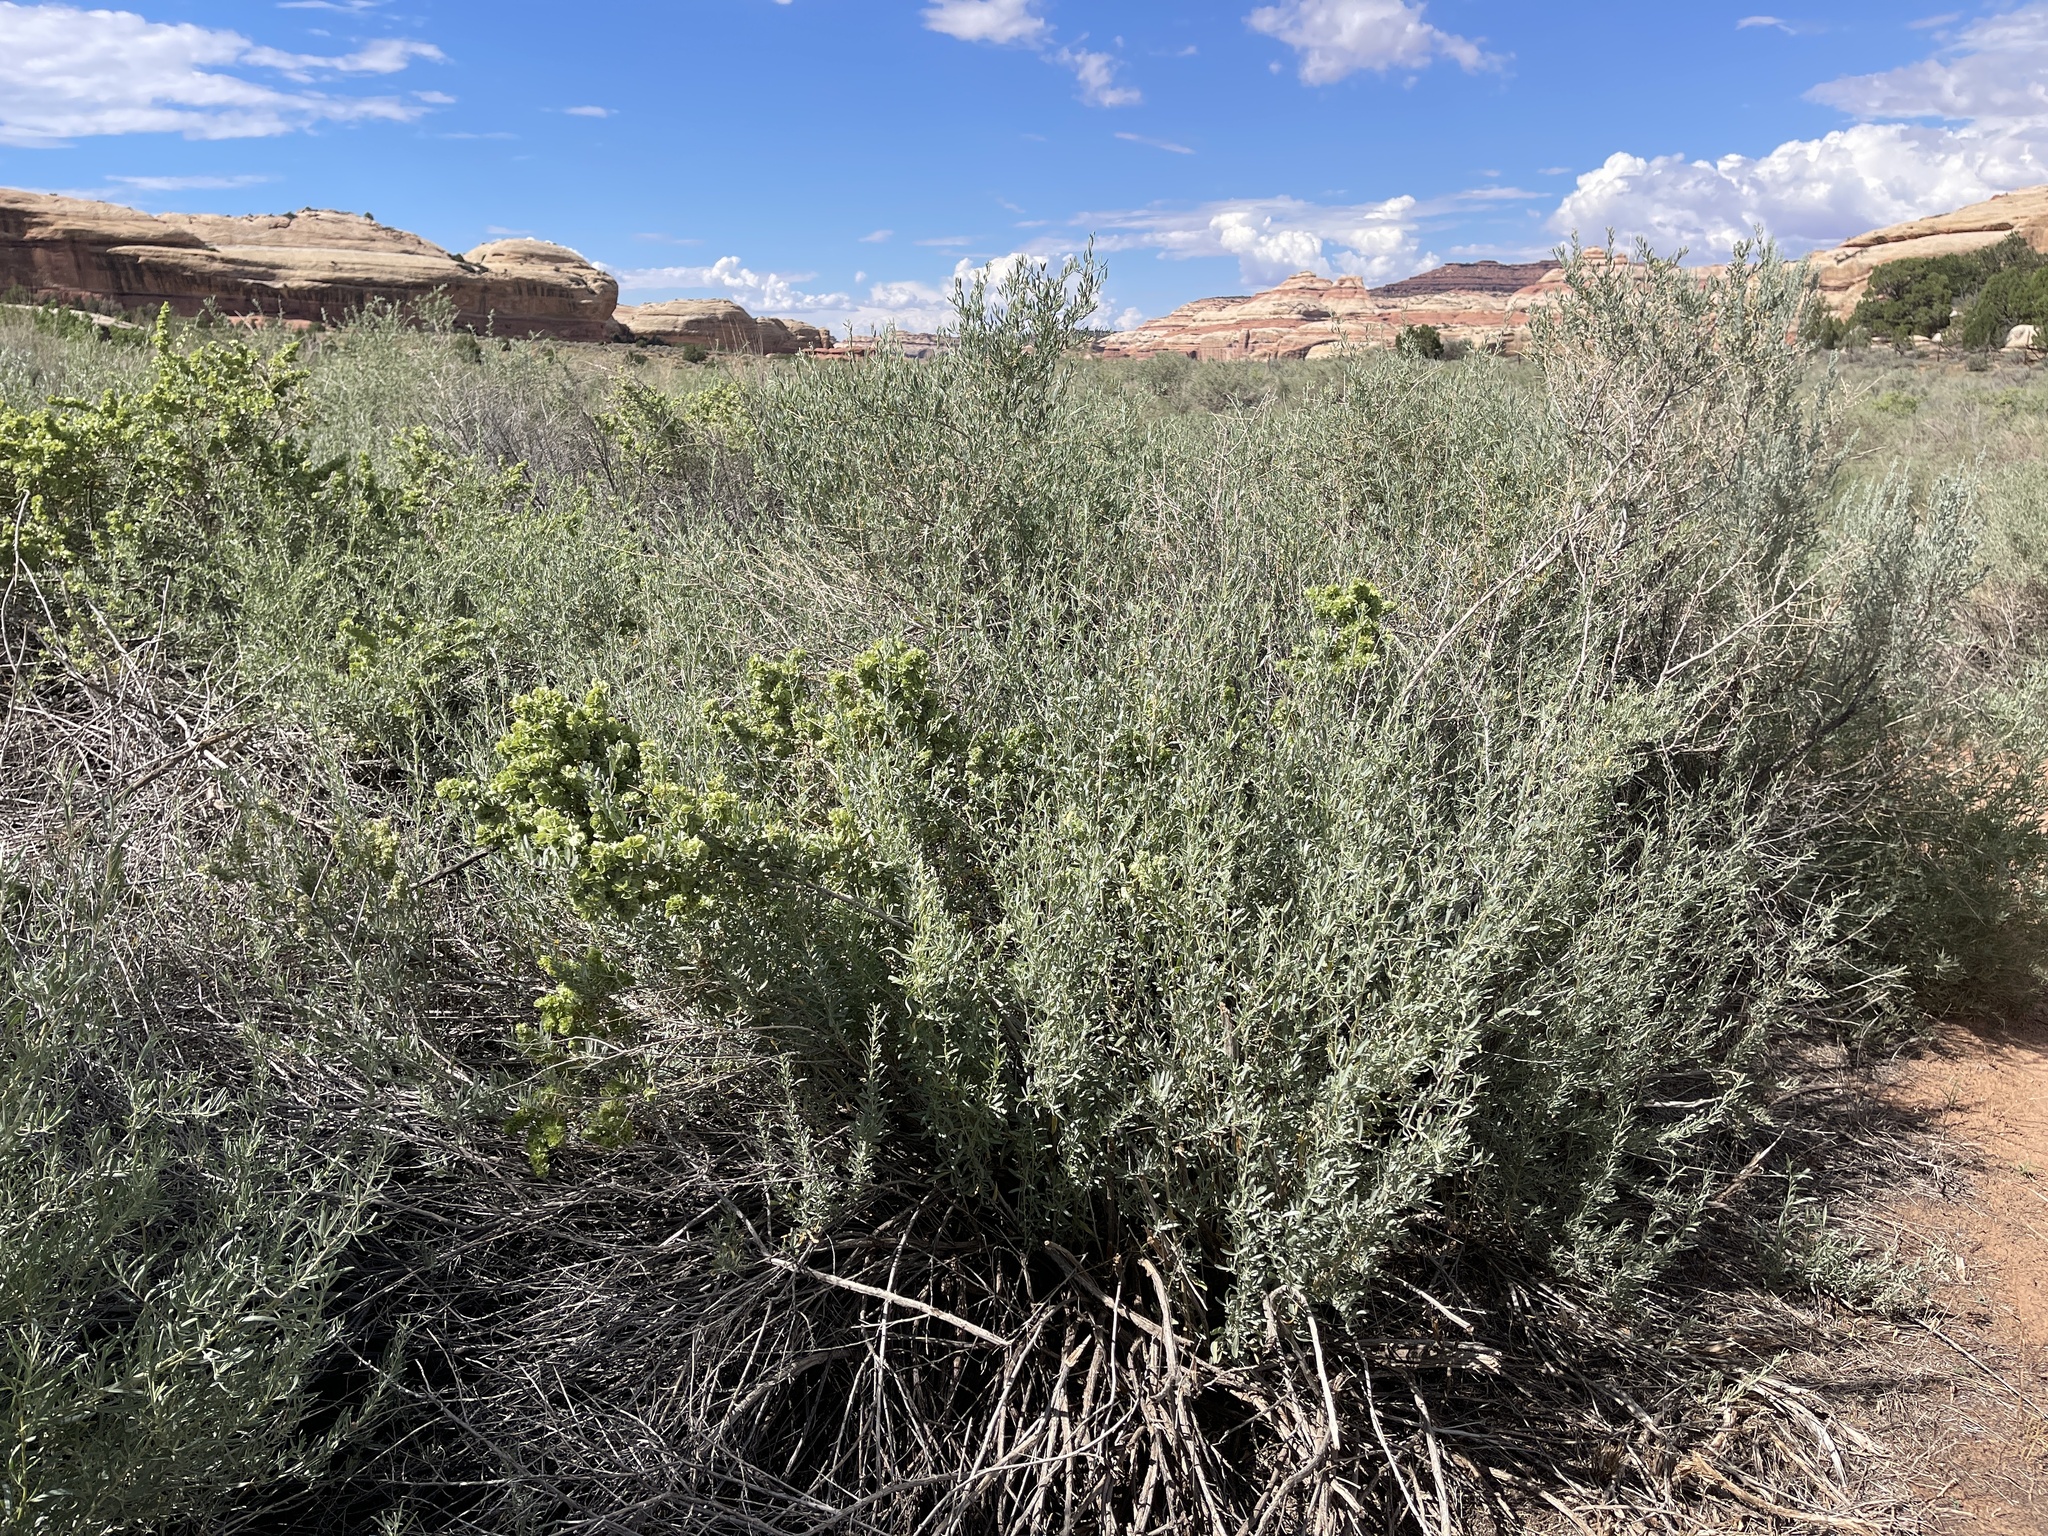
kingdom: Plantae
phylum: Tracheophyta
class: Magnoliopsida
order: Caryophyllales
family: Amaranthaceae
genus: Atriplex
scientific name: Atriplex canescens
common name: Four-wing saltbush
